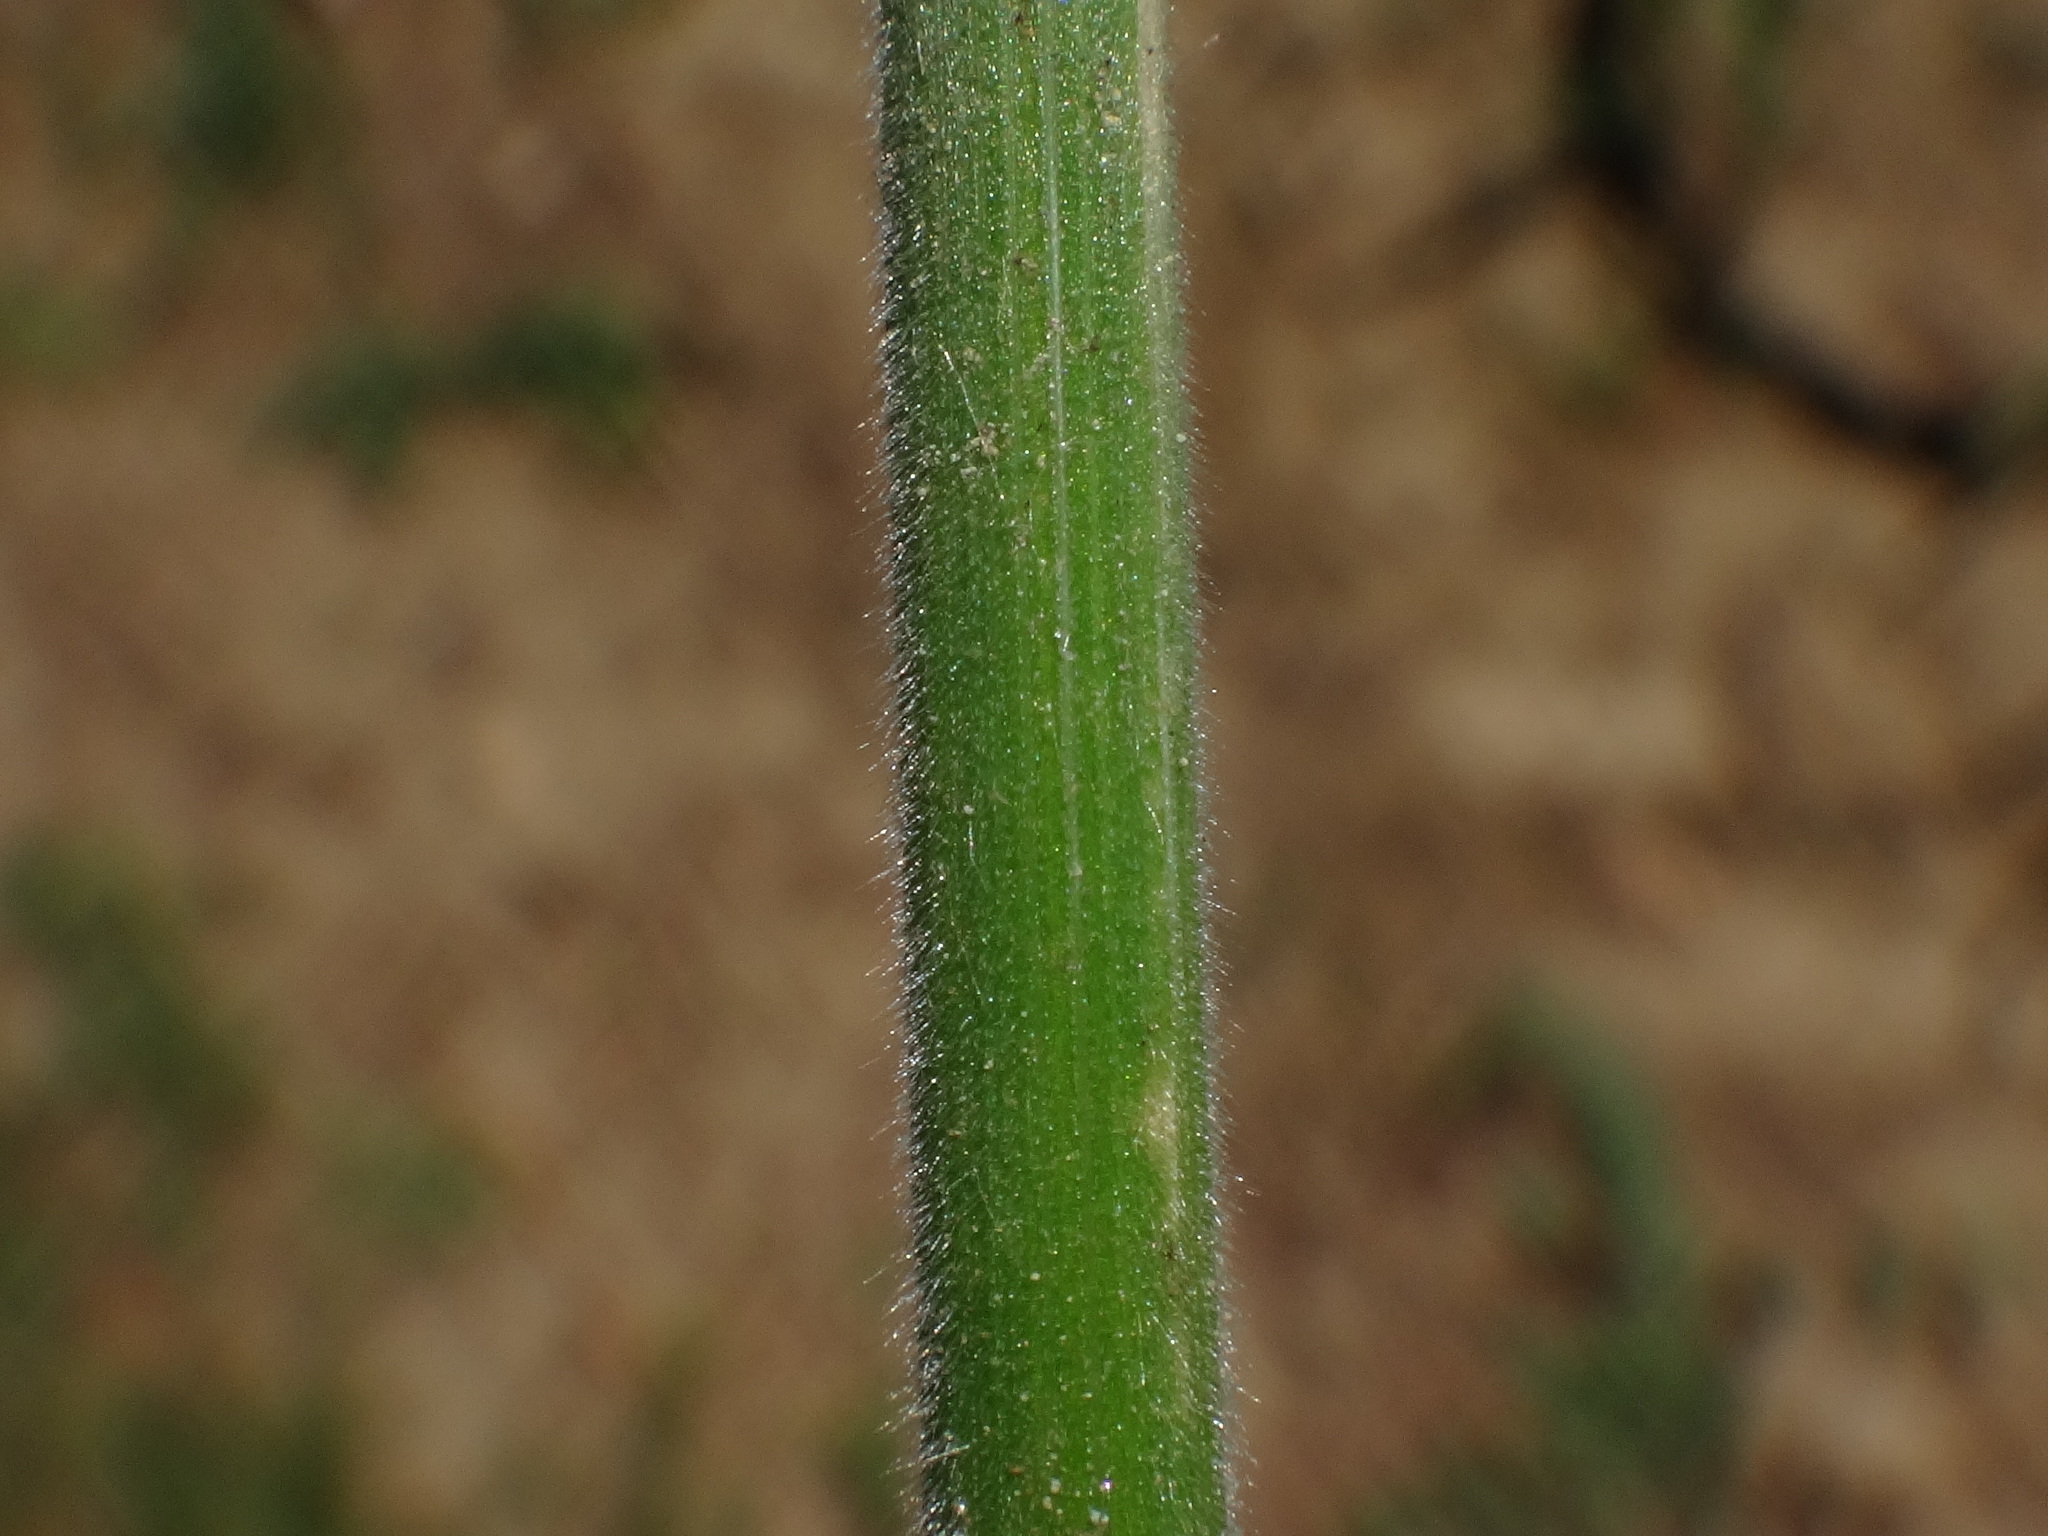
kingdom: Plantae
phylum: Tracheophyta
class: Liliopsida
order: Poales
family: Poaceae
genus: Bromus
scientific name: Bromus erectus
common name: Erect brome
